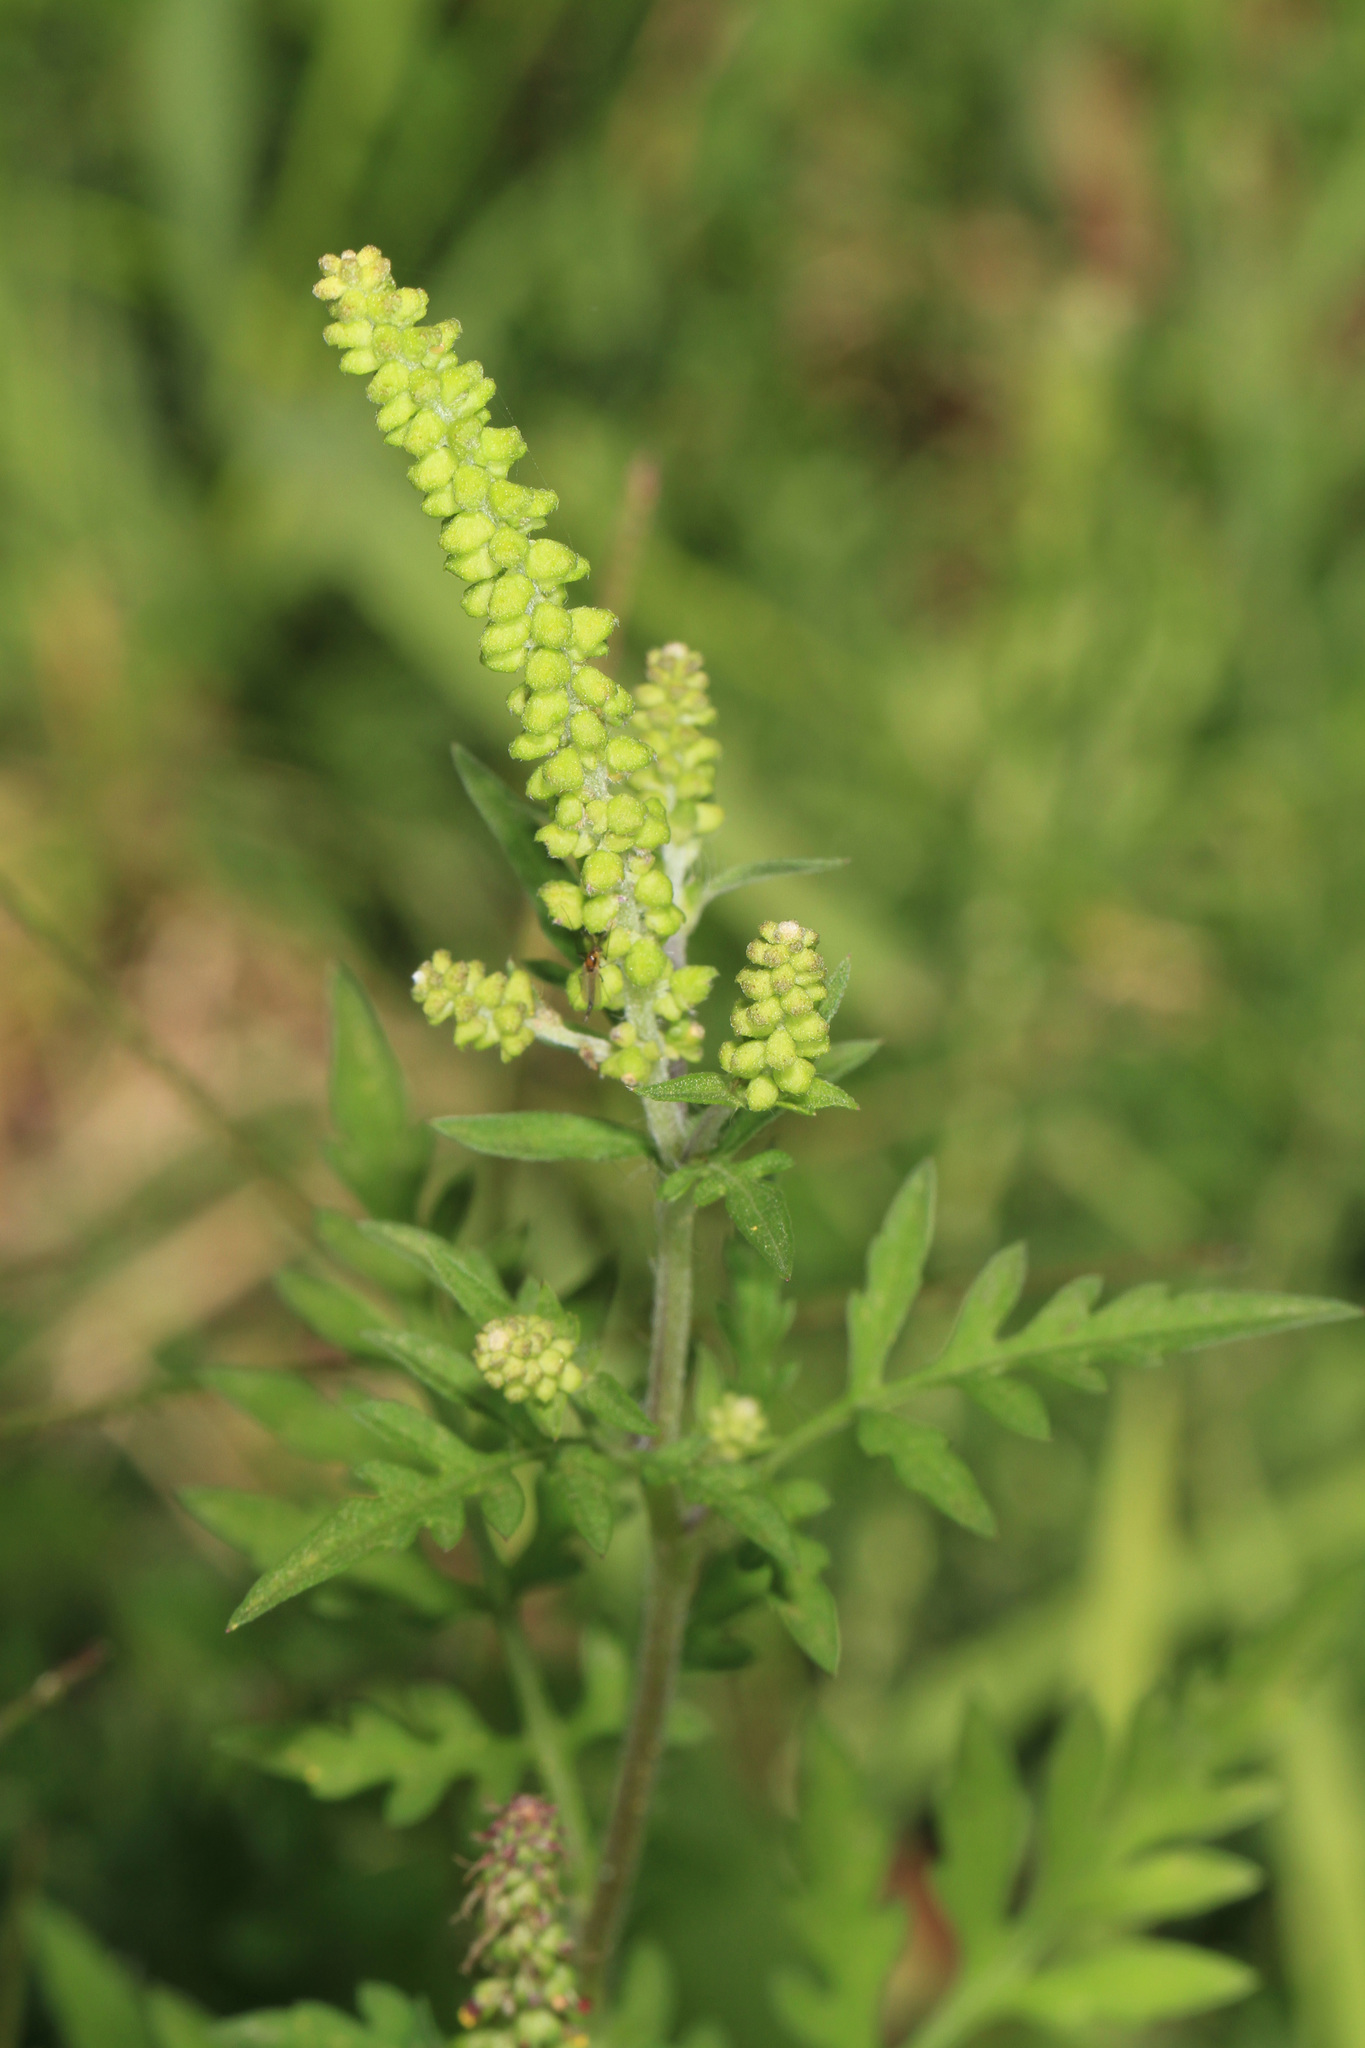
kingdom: Plantae
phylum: Tracheophyta
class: Magnoliopsida
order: Asterales
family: Asteraceae
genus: Ambrosia
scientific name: Ambrosia artemisiifolia
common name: Annual ragweed
